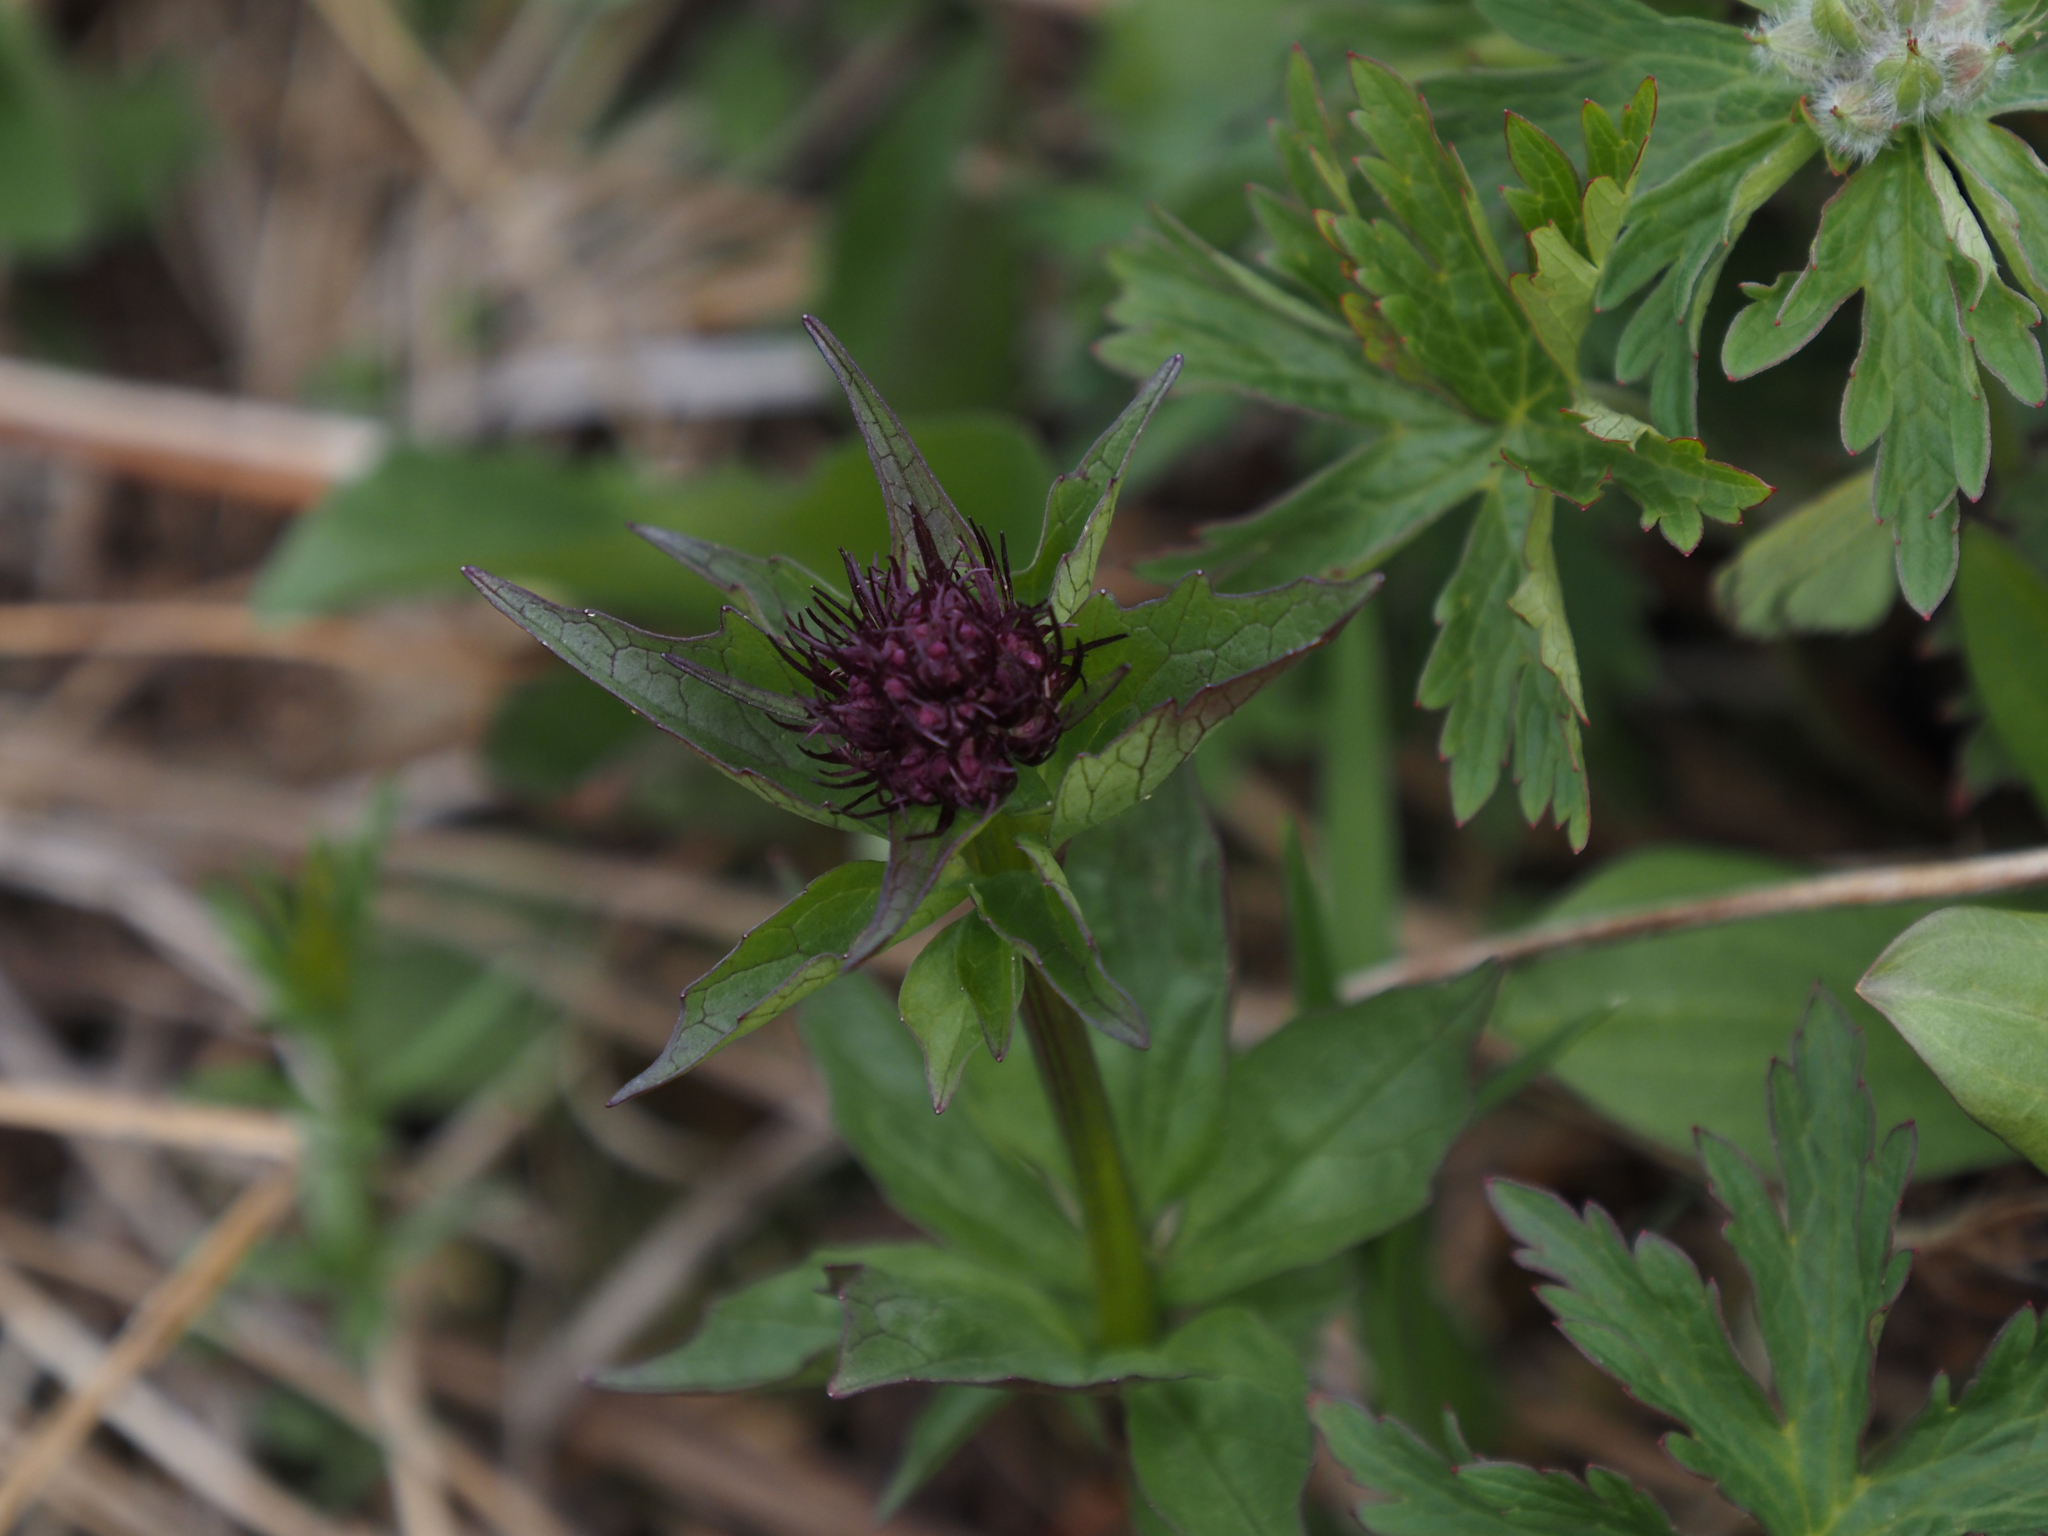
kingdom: Plantae
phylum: Tracheophyta
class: Magnoliopsida
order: Dipsacales
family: Caprifoliaceae
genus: Valeriana
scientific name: Valeriana sitchensis
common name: Pacific valerian
